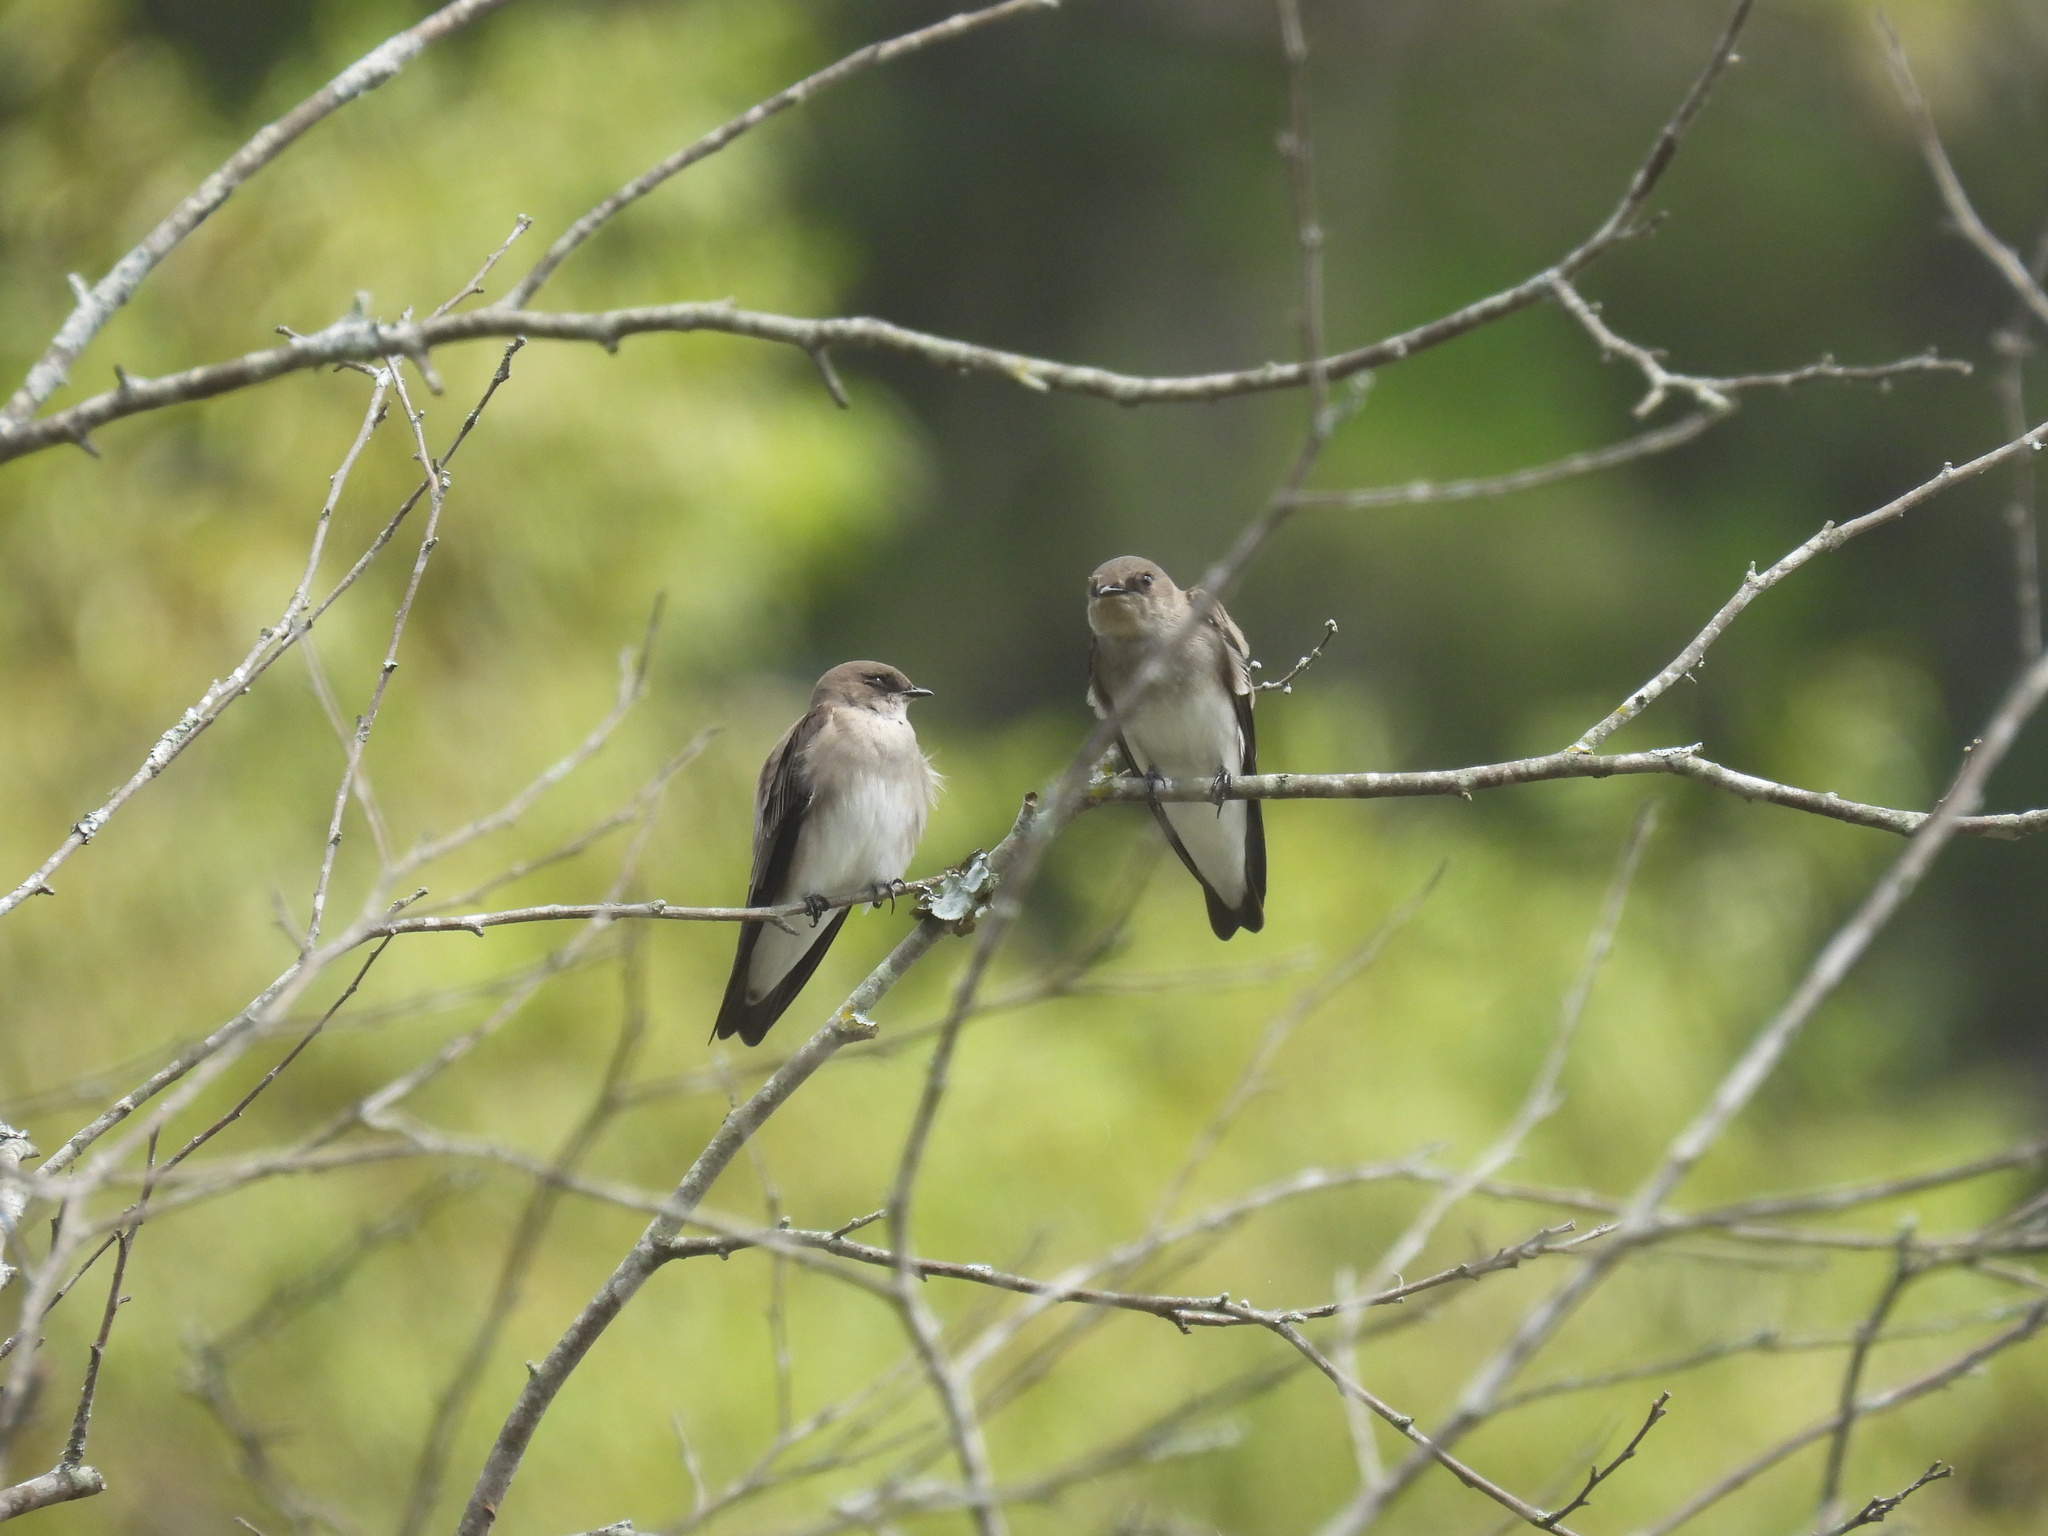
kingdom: Animalia
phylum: Chordata
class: Aves
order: Passeriformes
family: Hirundinidae
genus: Stelgidopteryx
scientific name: Stelgidopteryx serripennis
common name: Northern rough-winged swallow
